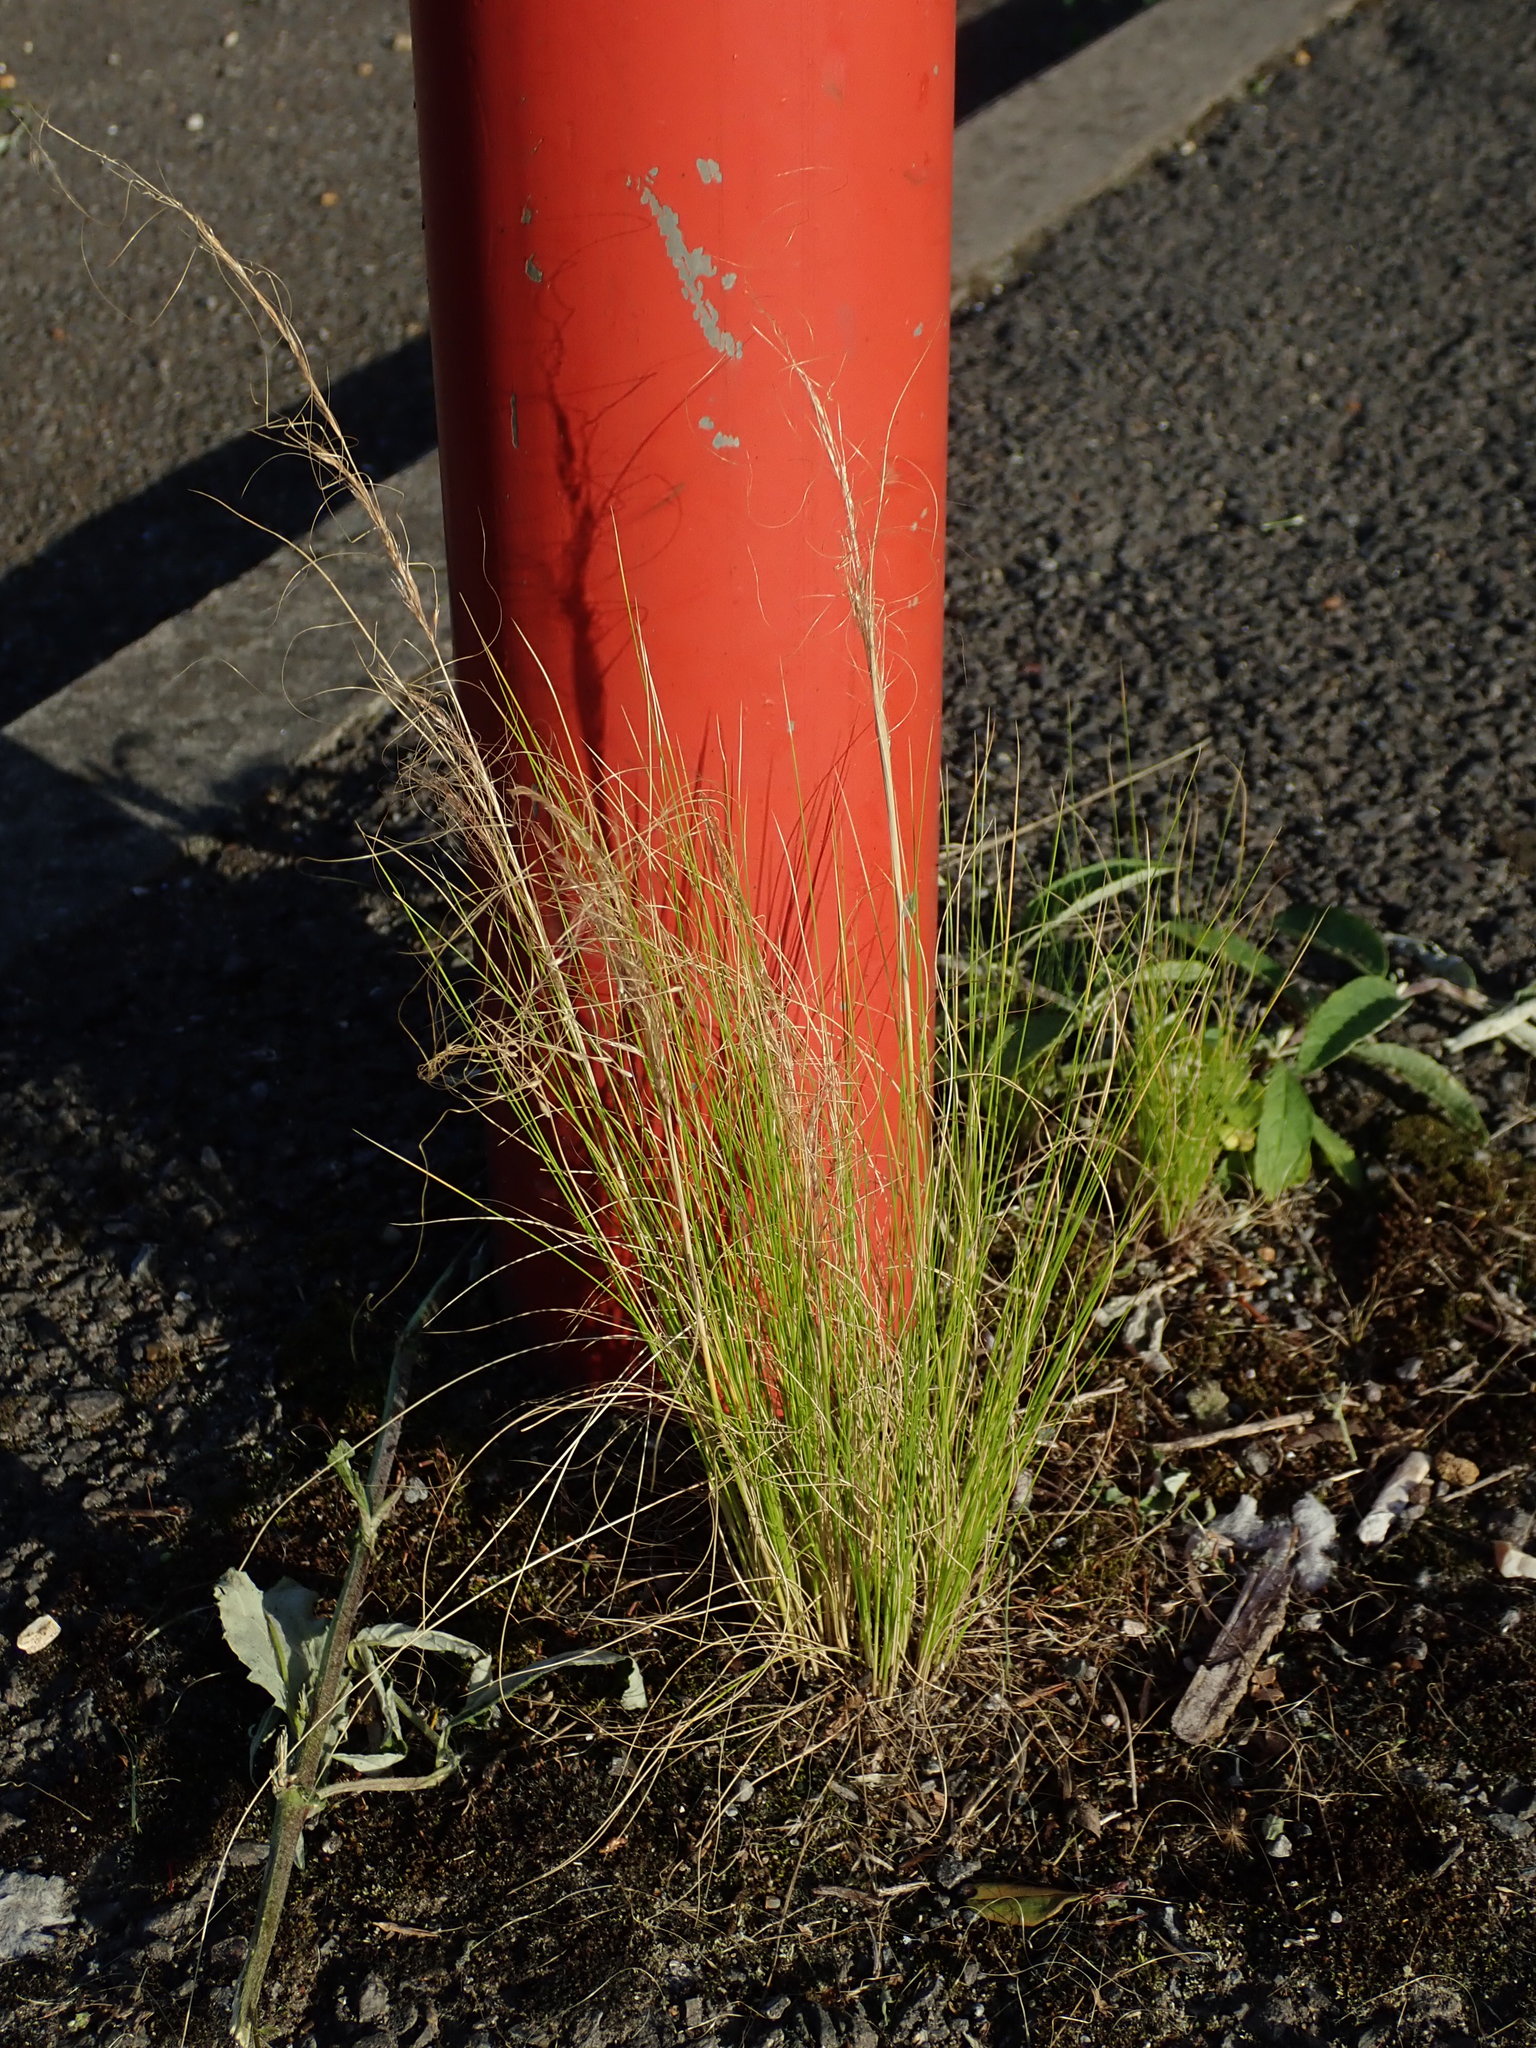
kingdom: Plantae
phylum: Tracheophyta
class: Liliopsida
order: Poales
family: Poaceae
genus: Nassella
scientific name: Nassella tenuissima
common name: Argentine needlegrass
